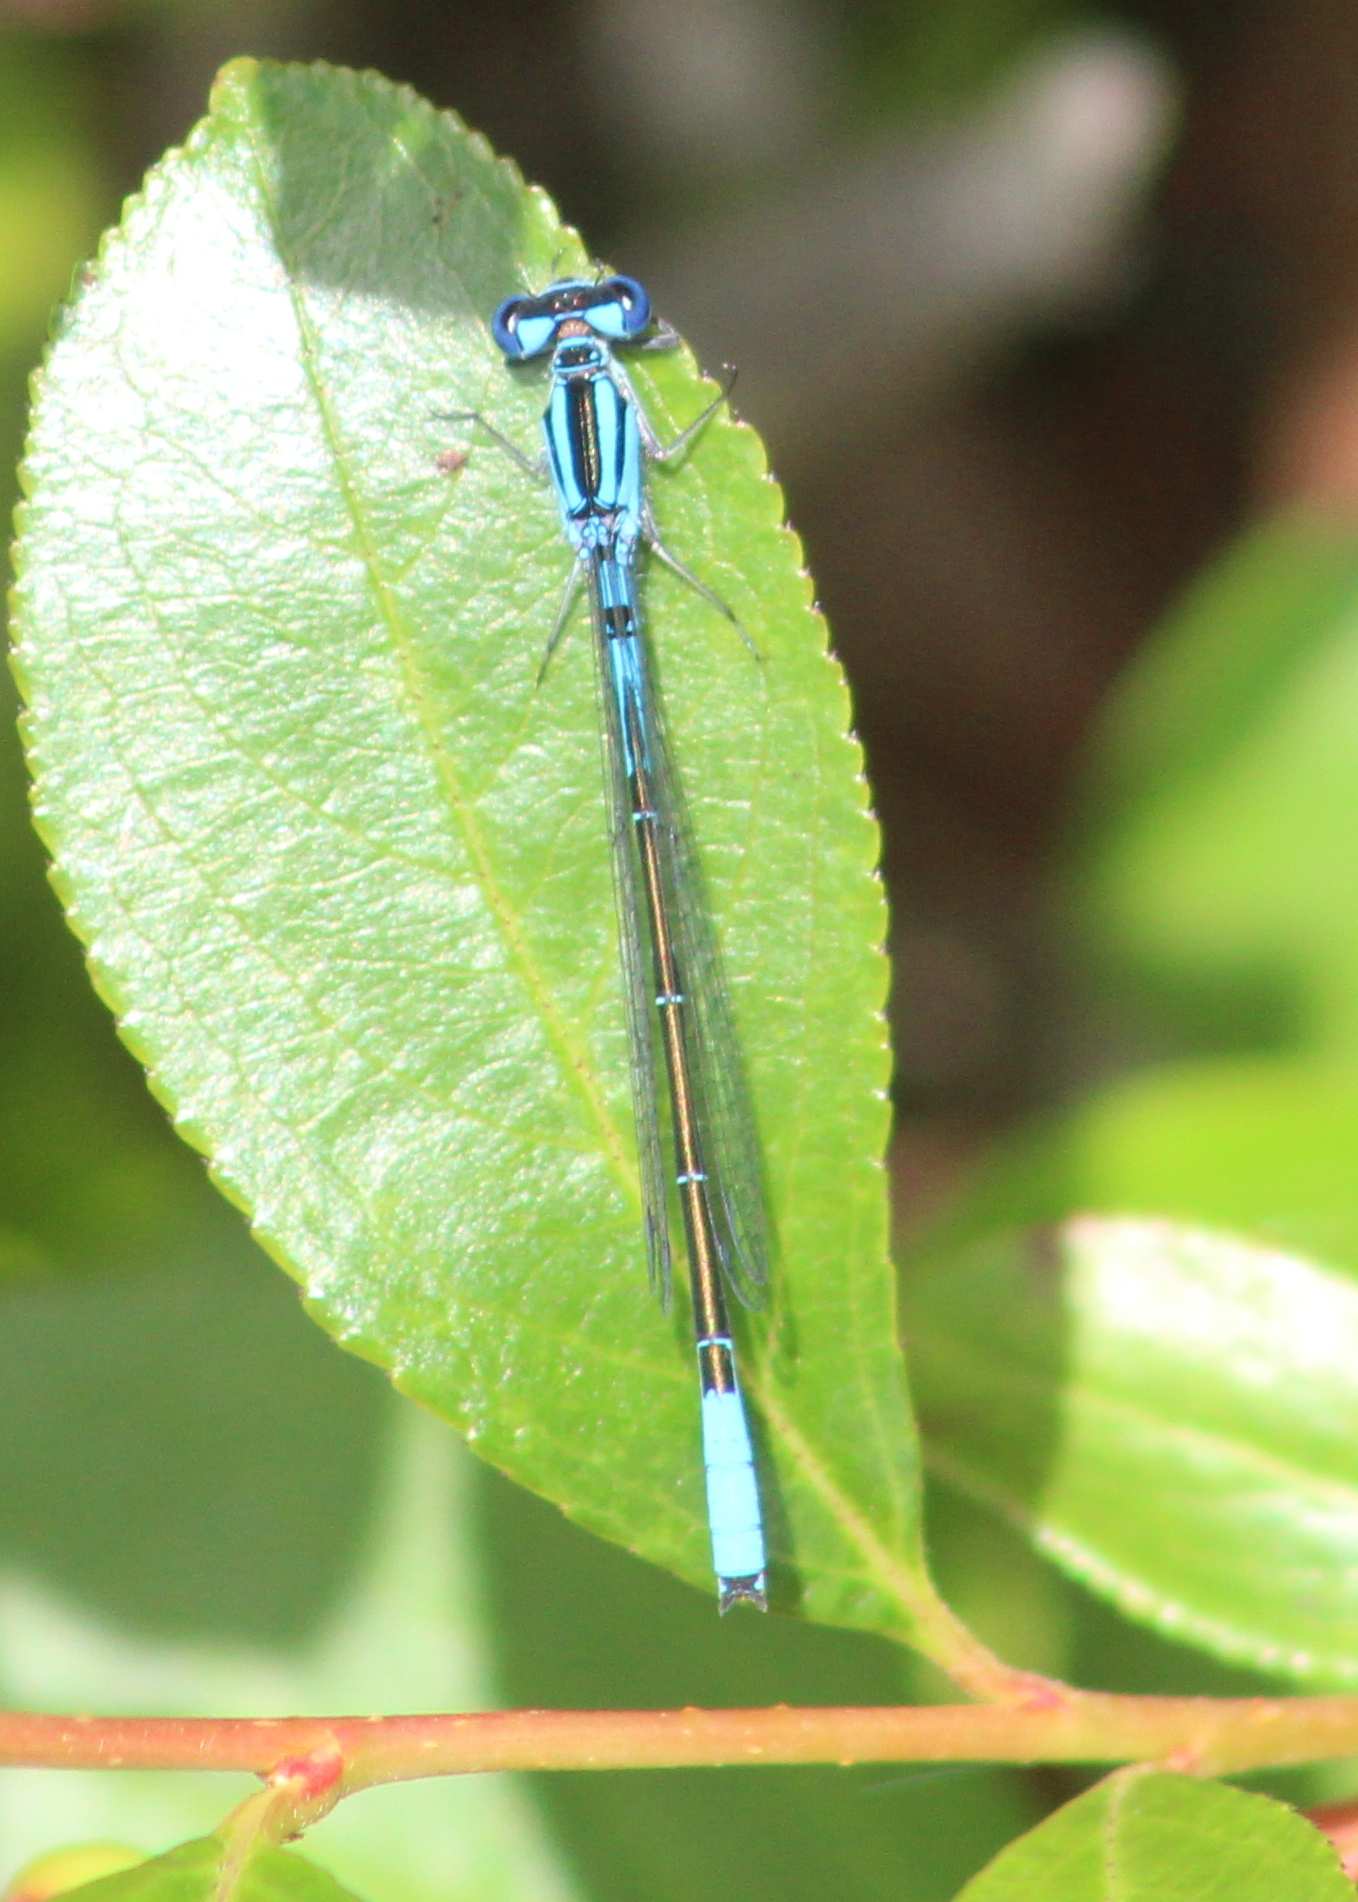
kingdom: Animalia
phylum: Arthropoda
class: Insecta
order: Odonata
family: Coenagrionidae
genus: Enallagma
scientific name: Enallagma aspersum
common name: Azure bluet
